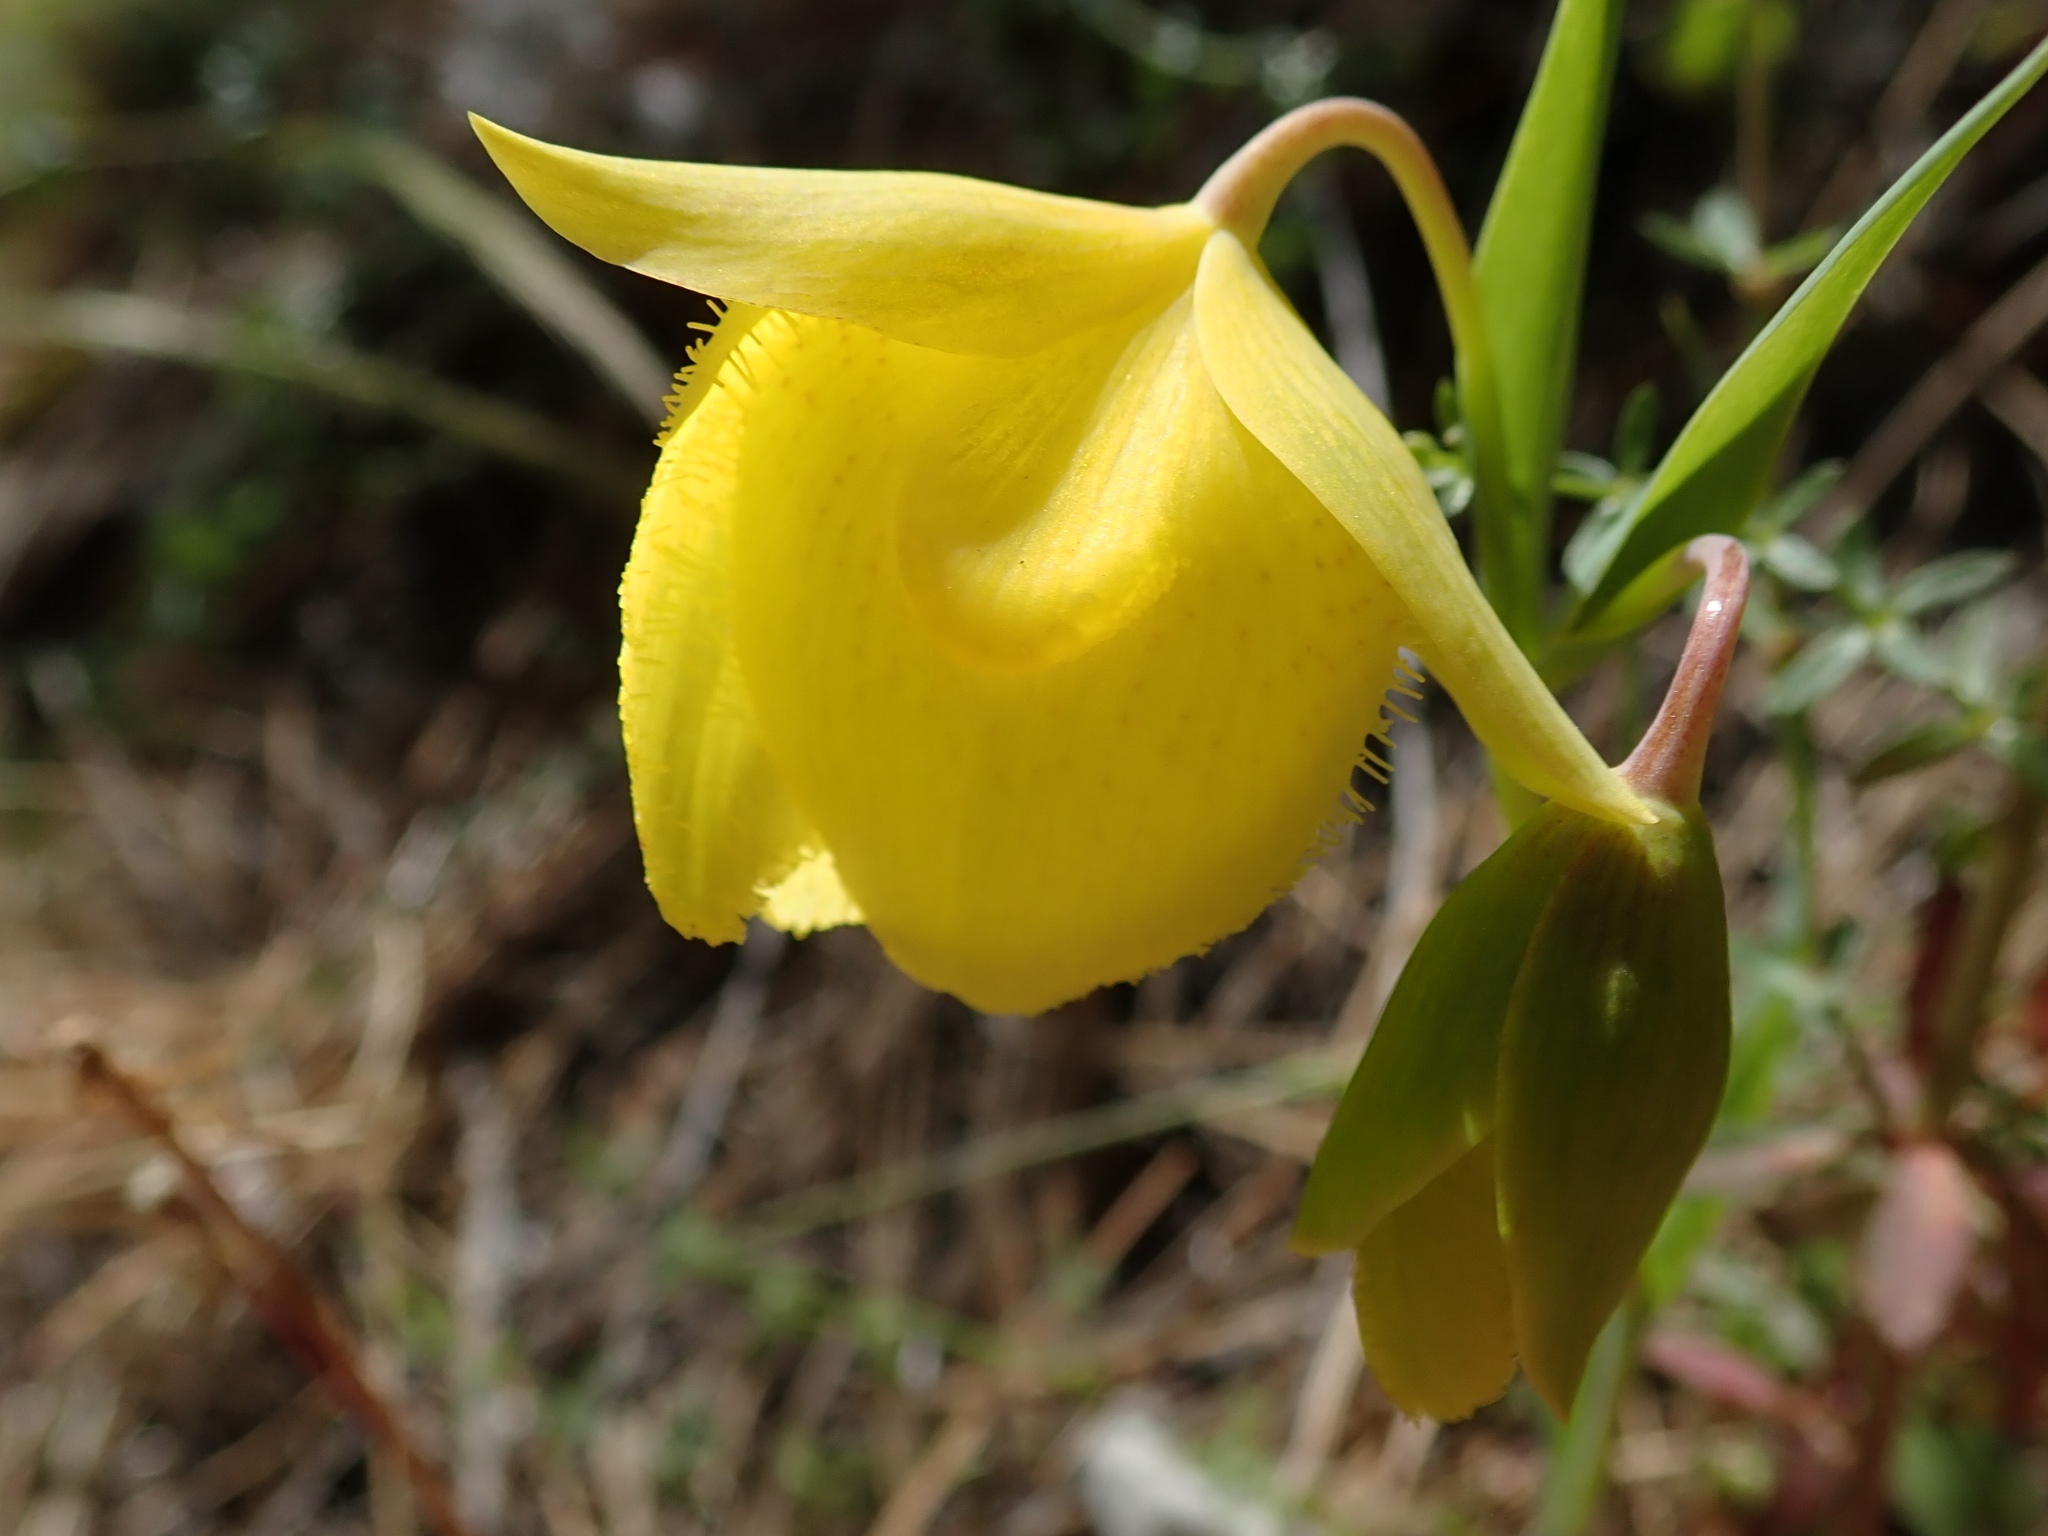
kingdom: Plantae
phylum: Tracheophyta
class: Liliopsida
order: Liliales
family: Liliaceae
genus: Calochortus
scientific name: Calochortus pulchellus
